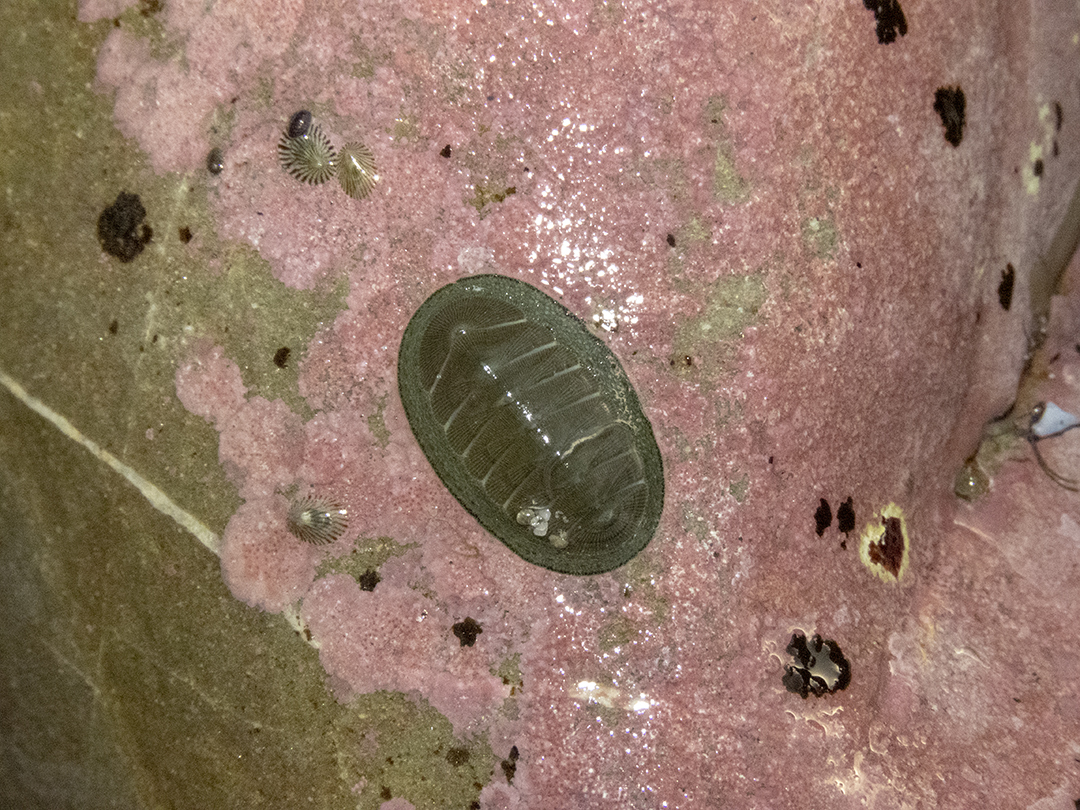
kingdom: Animalia
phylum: Mollusca
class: Polyplacophora
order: Chitonida
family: Chitonidae
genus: Chiton
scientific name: Chiton glaucus
